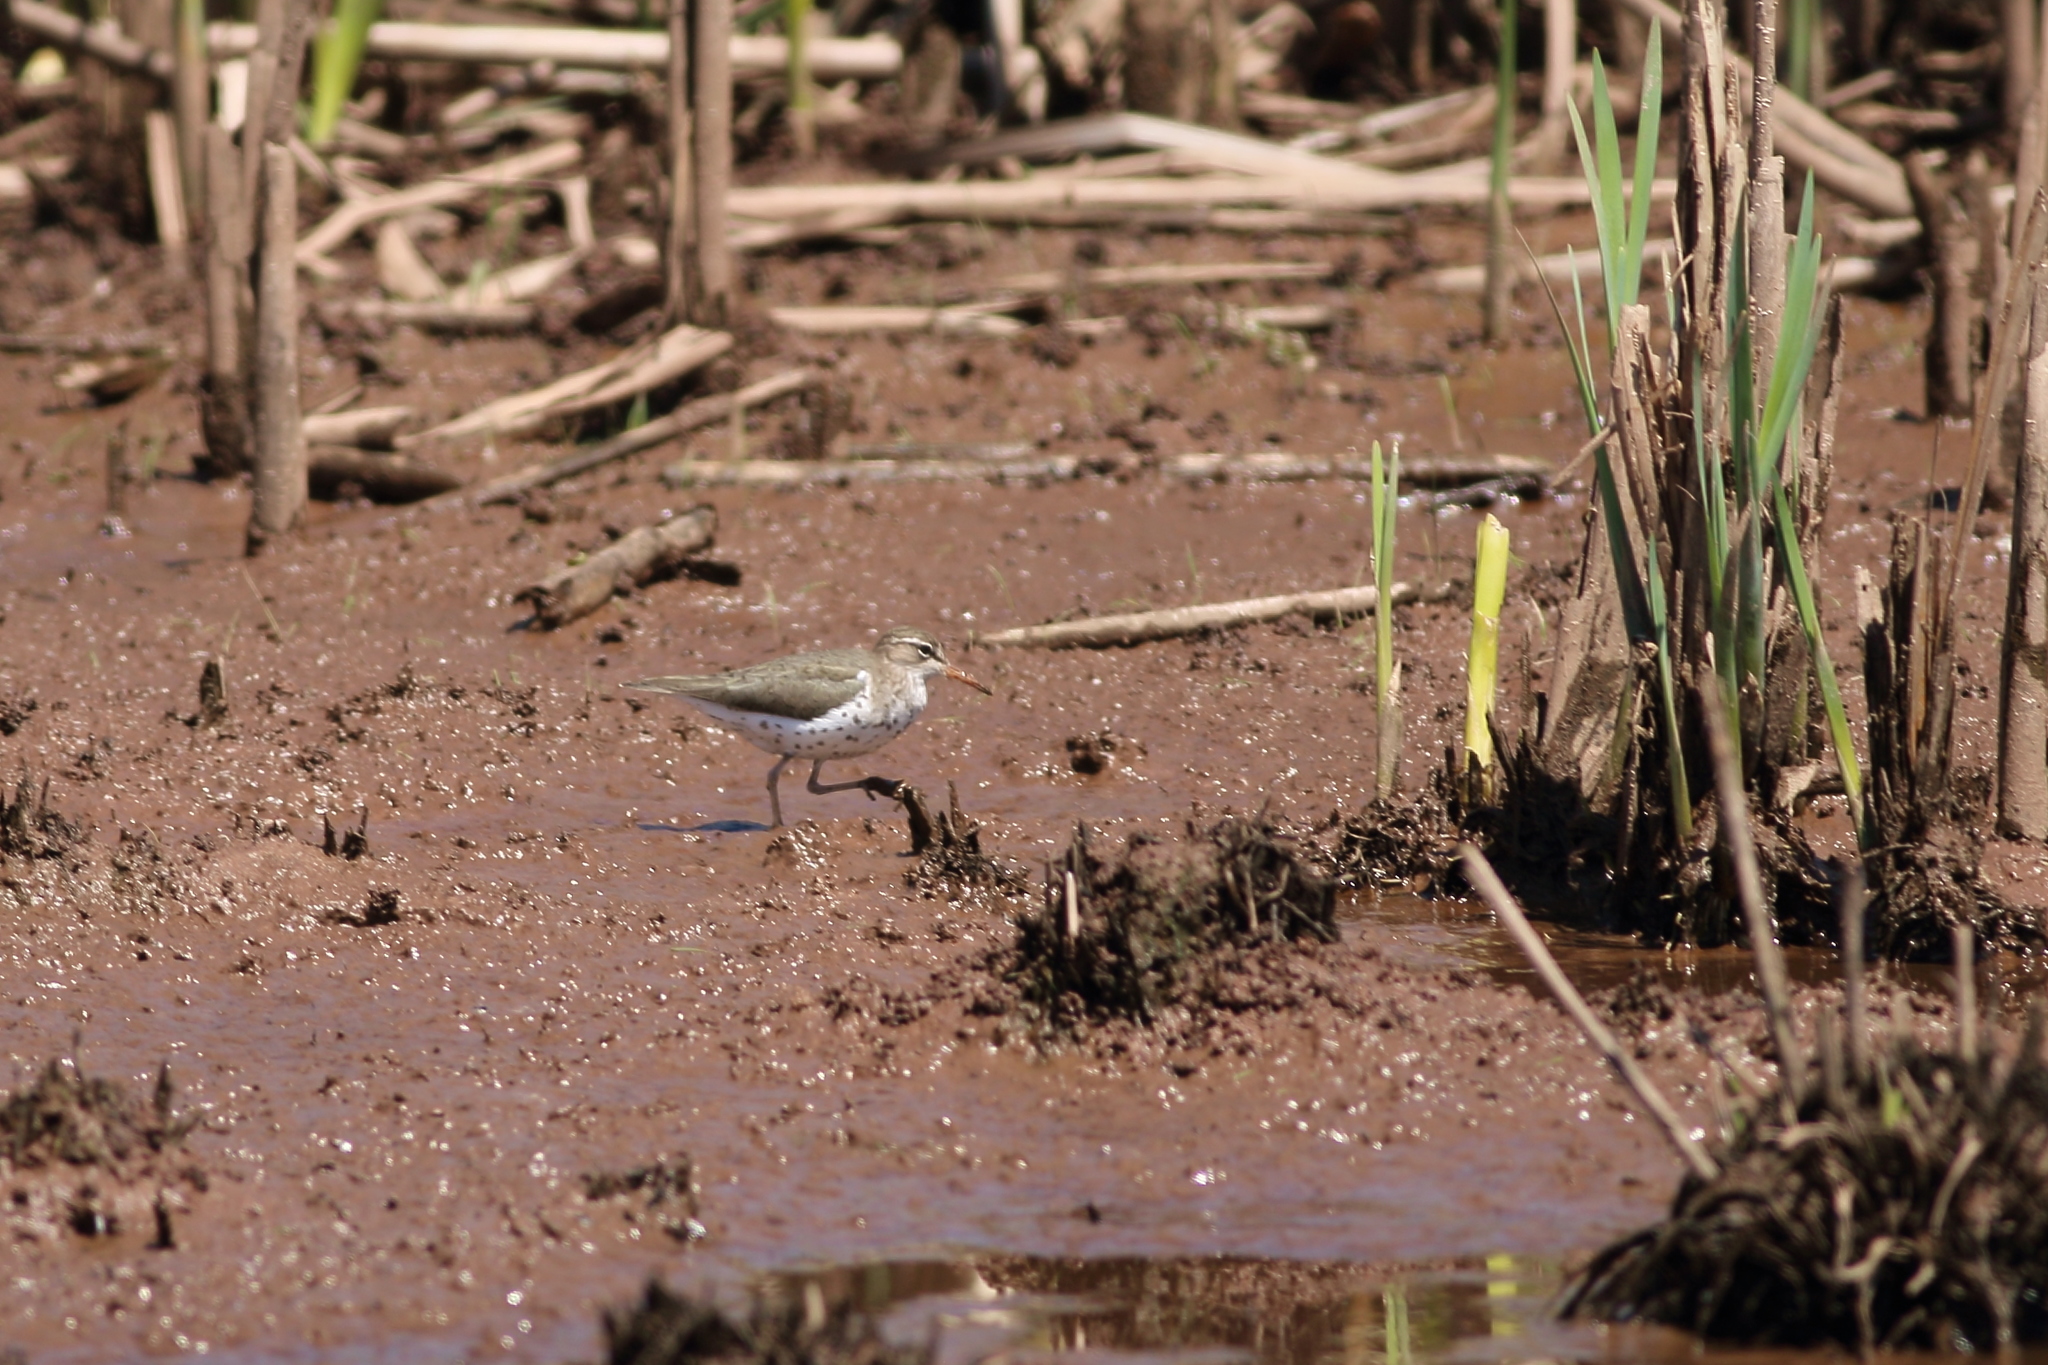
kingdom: Animalia
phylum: Chordata
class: Aves
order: Charadriiformes
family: Scolopacidae
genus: Actitis
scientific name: Actitis macularius
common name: Spotted sandpiper
